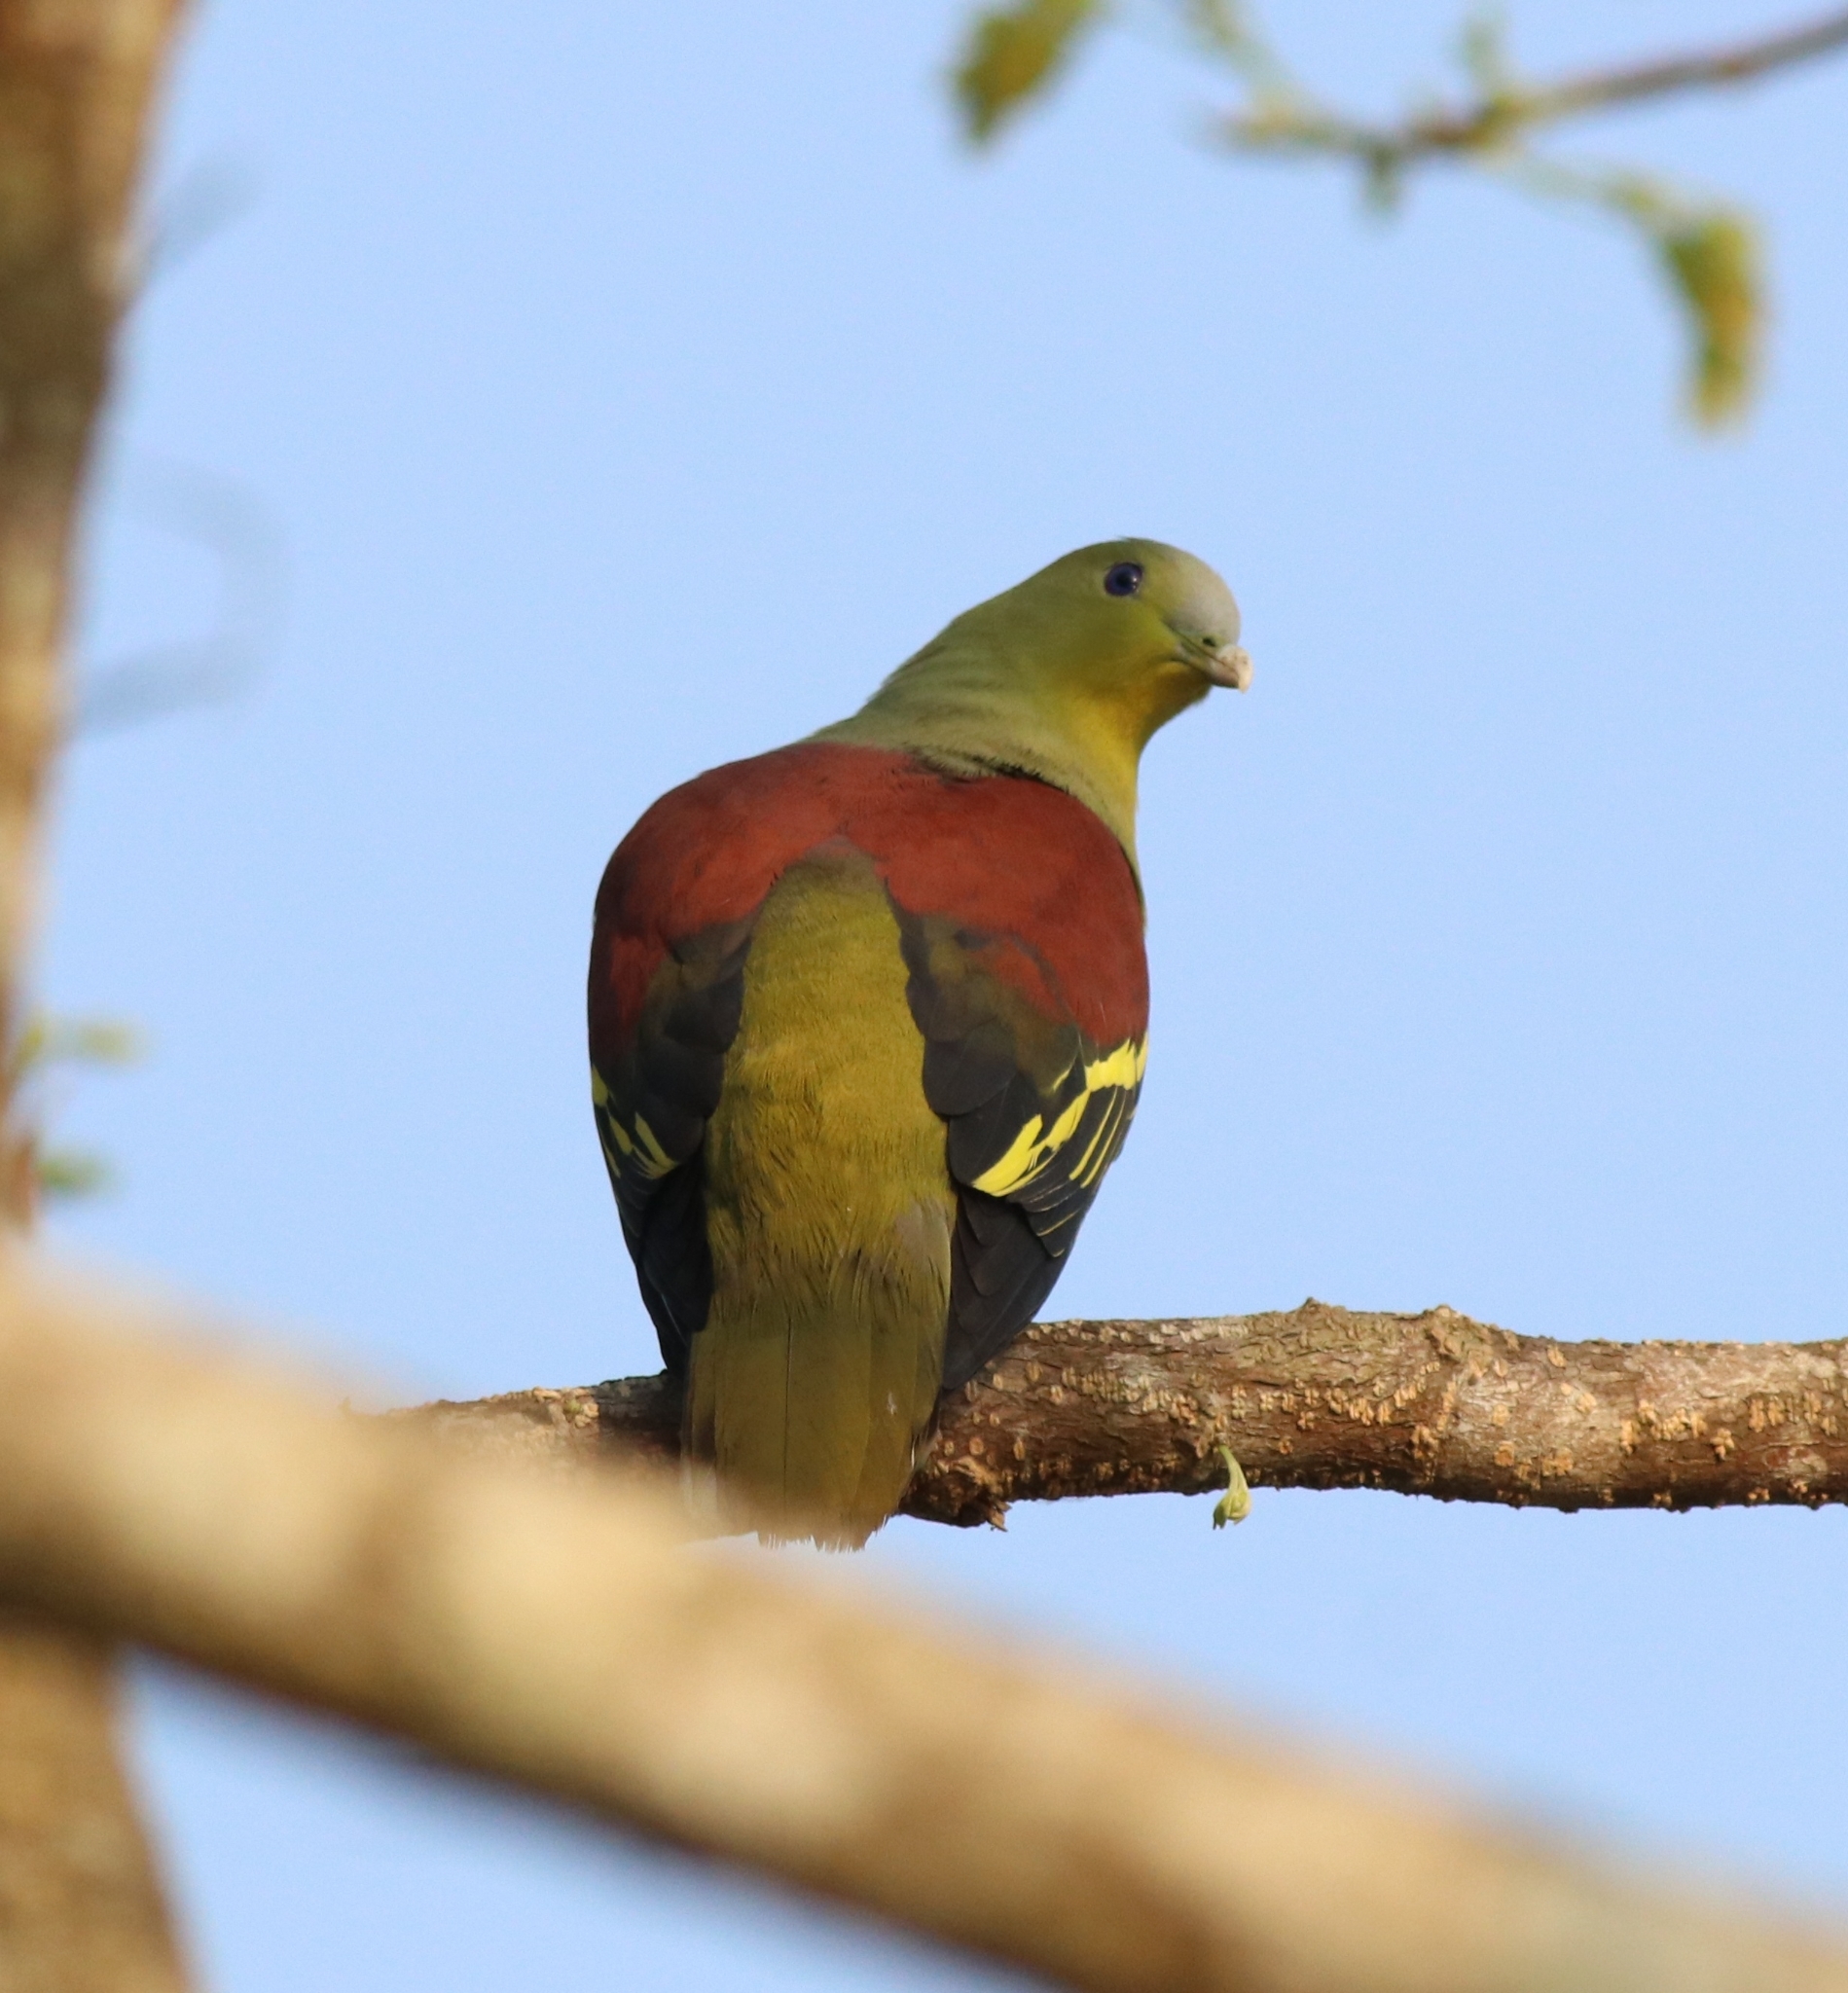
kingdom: Animalia
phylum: Chordata
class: Aves
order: Columbiformes
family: Columbidae
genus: Treron
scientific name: Treron affinis
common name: Grey-fronted green pigeon
